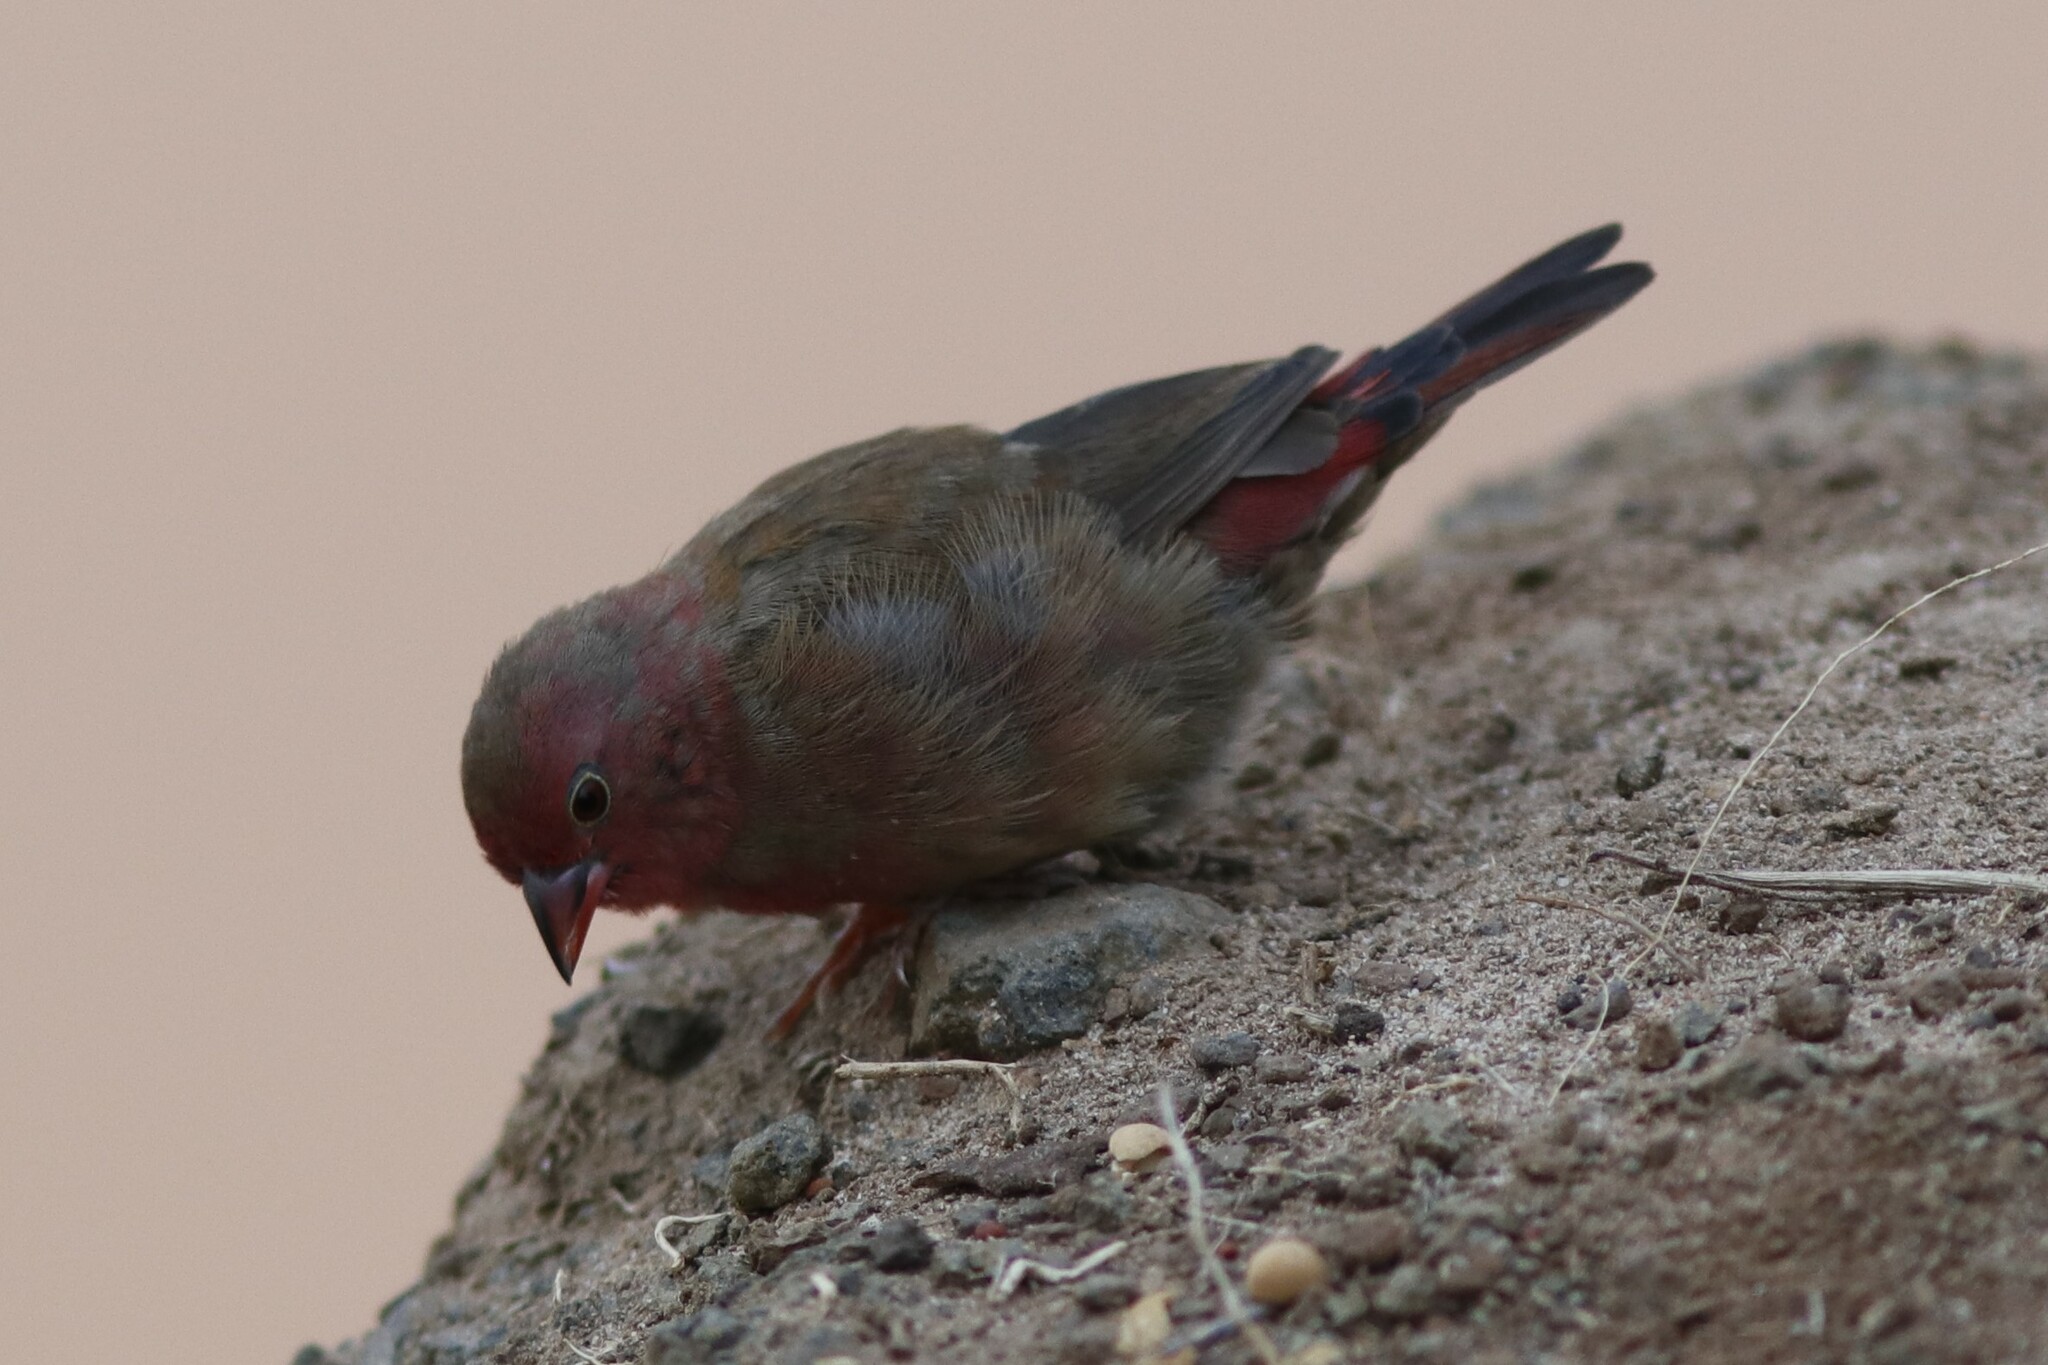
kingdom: Animalia
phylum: Chordata
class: Aves
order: Passeriformes
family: Estrildidae
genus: Lagonosticta
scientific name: Lagonosticta senegala
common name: Red-billed firefinch
